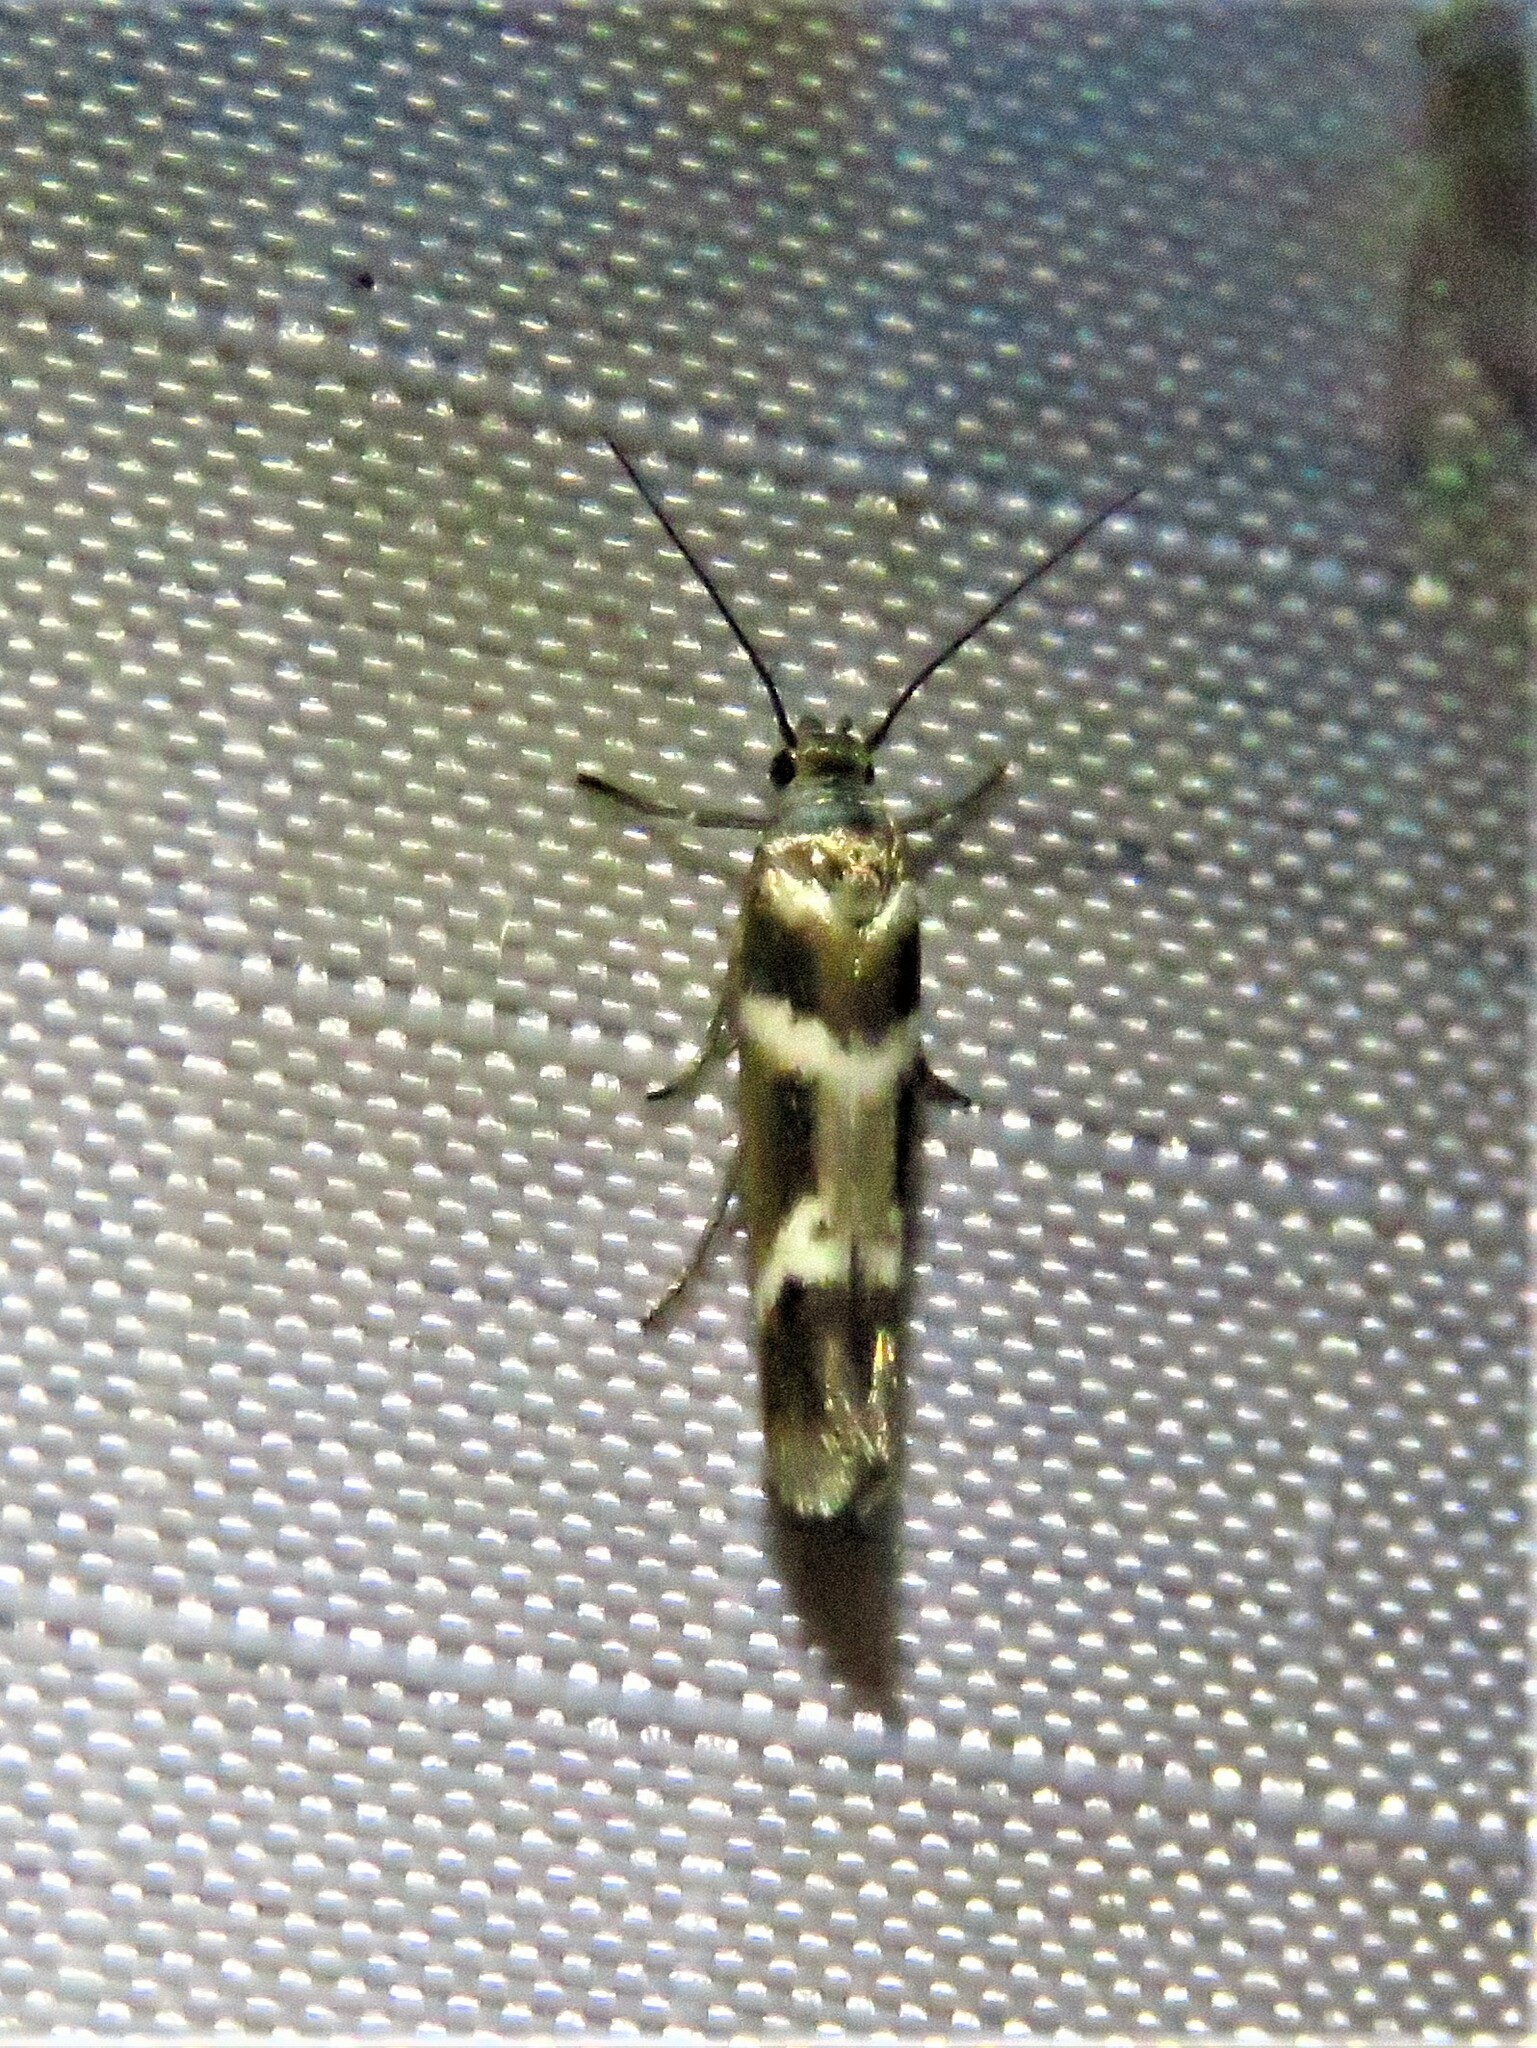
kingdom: Animalia
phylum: Arthropoda
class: Insecta
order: Lepidoptera
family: Scythrididae
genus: Scythris
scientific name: Scythris trivinctella
